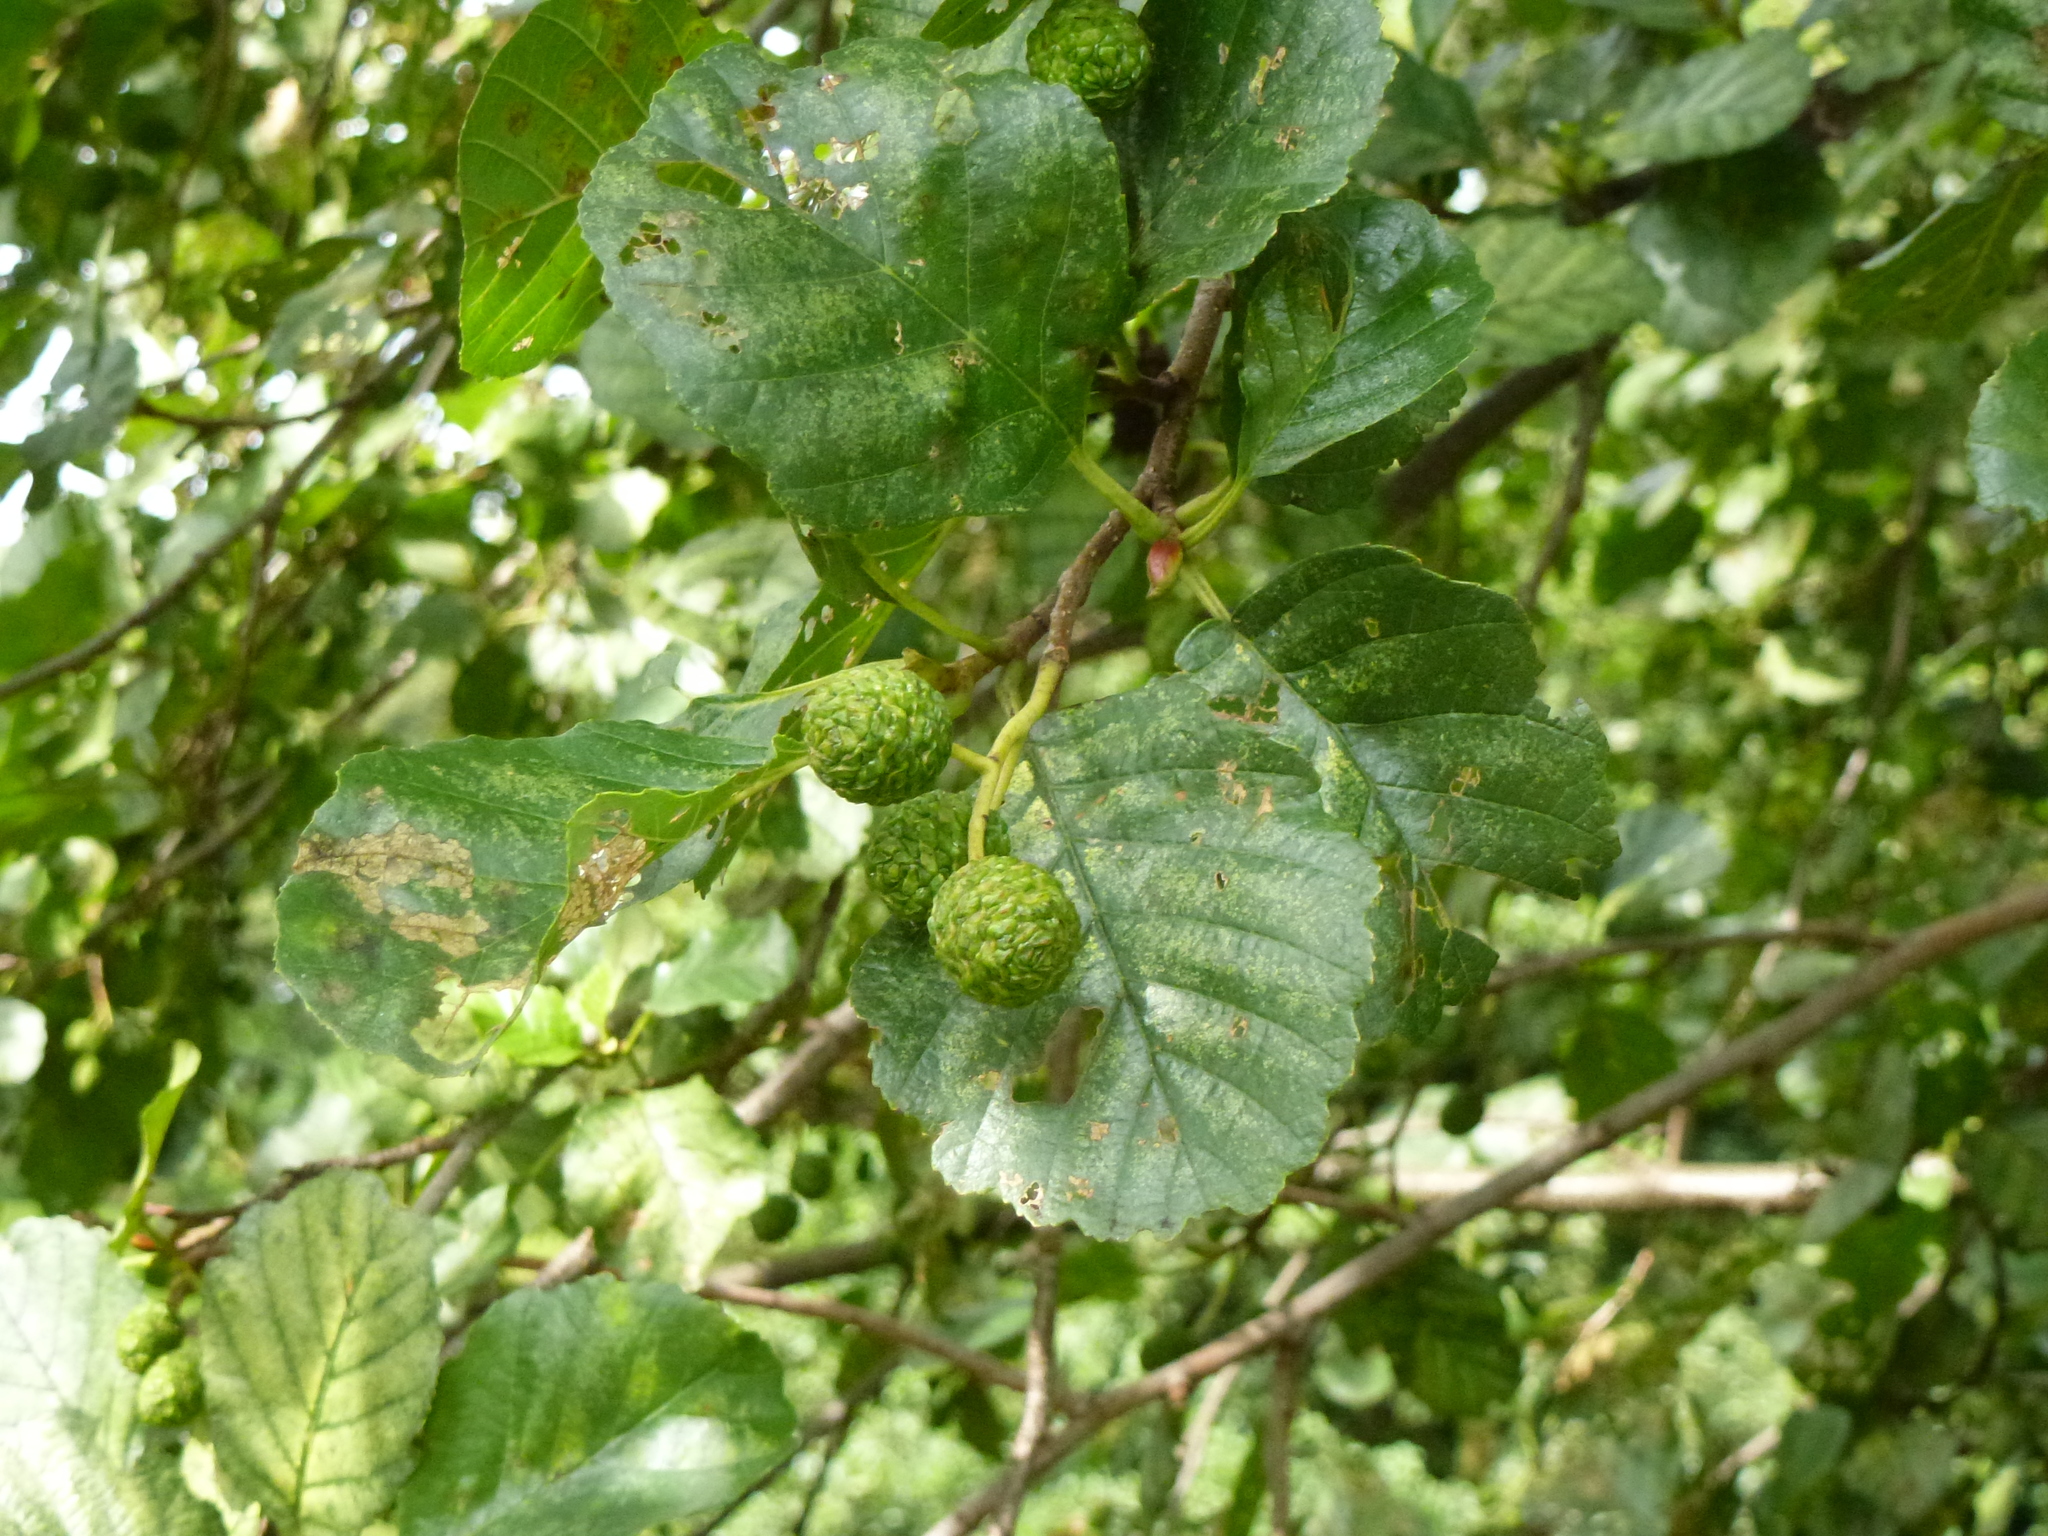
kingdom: Plantae
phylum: Tracheophyta
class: Magnoliopsida
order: Fagales
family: Betulaceae
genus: Alnus
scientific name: Alnus glutinosa
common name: Black alder
